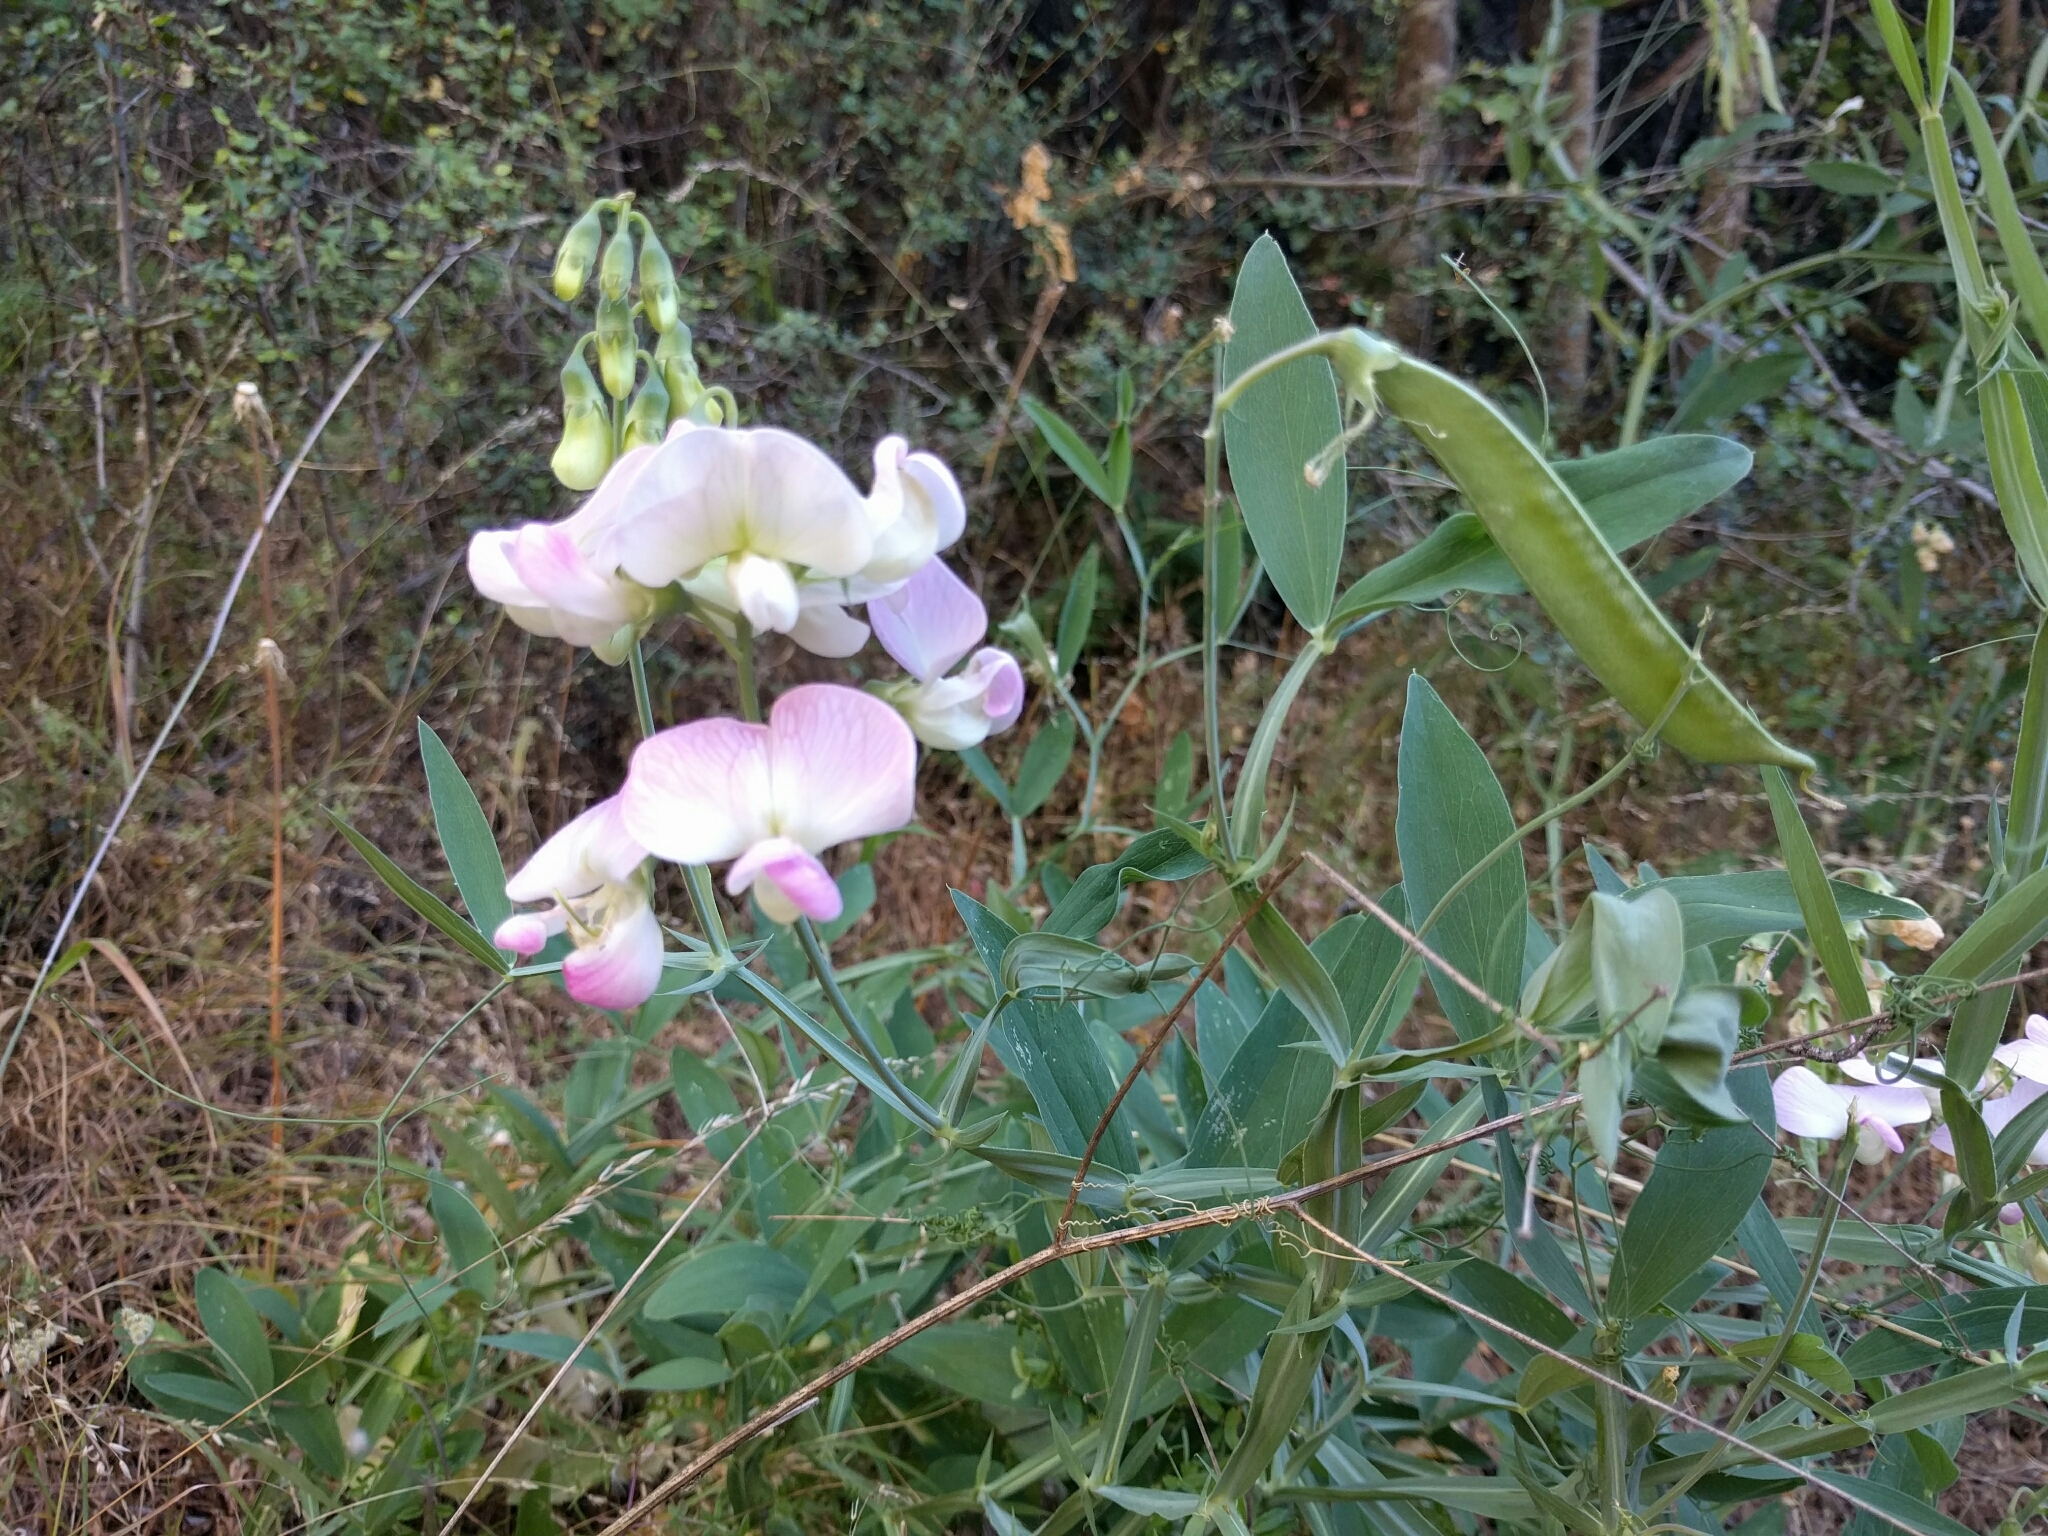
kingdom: Plantae
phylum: Tracheophyta
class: Magnoliopsida
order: Fabales
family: Fabaceae
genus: Lathyrus
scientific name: Lathyrus latifolius
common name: Perennial pea
